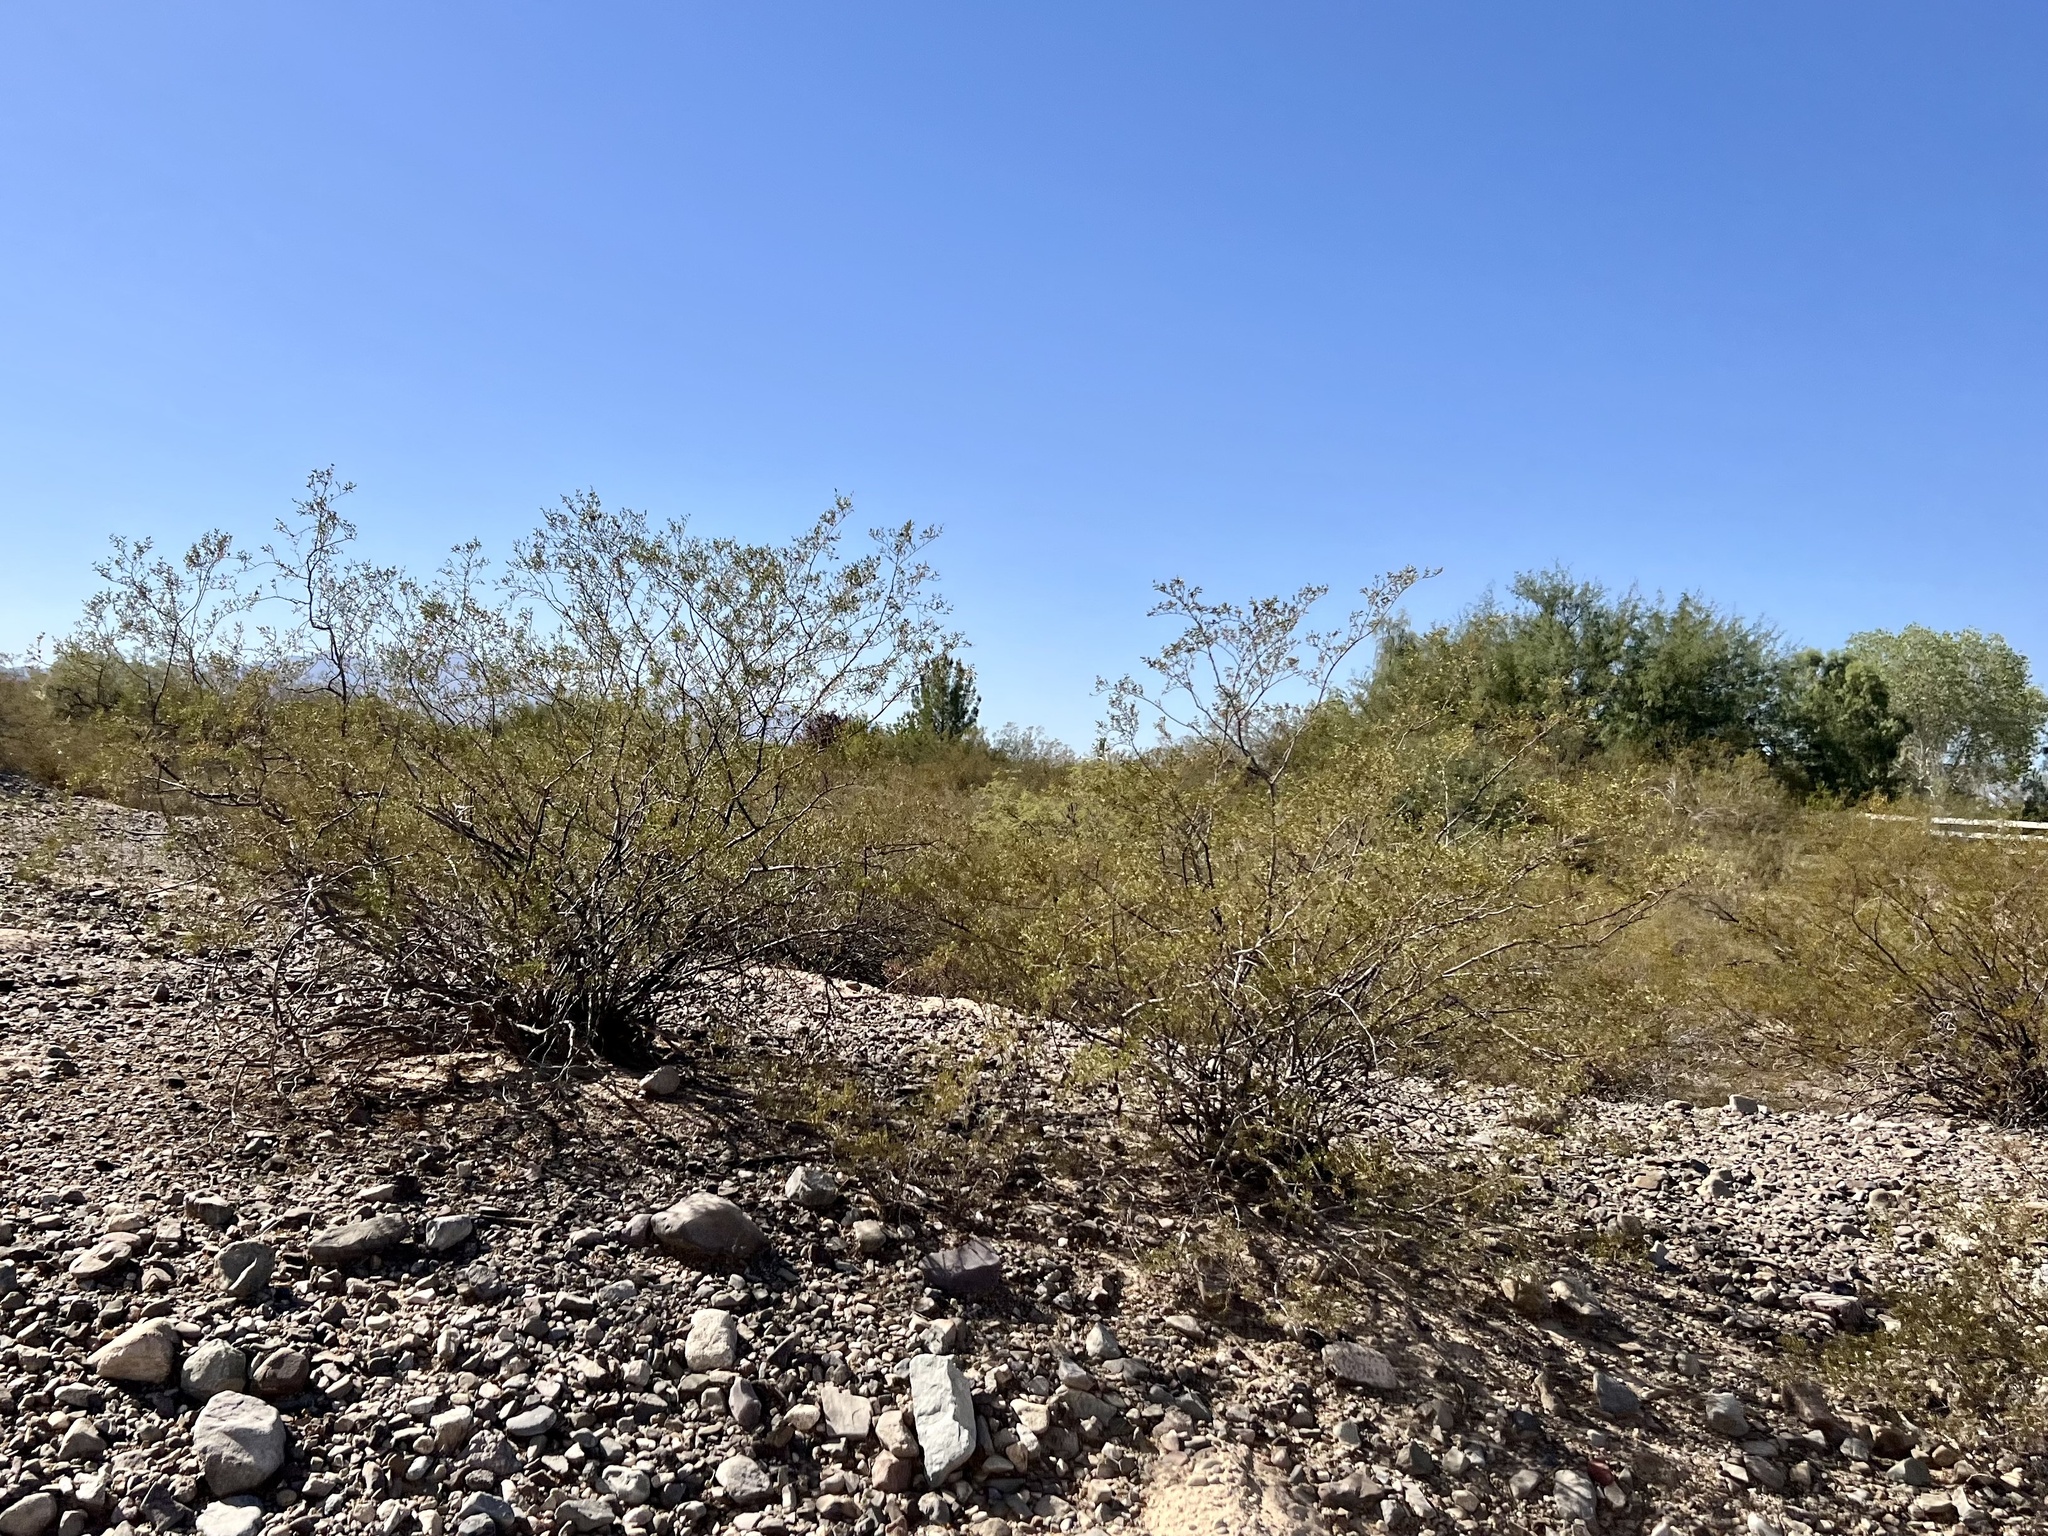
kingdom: Plantae
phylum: Tracheophyta
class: Magnoliopsida
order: Zygophyllales
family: Zygophyllaceae
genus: Larrea
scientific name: Larrea tridentata
